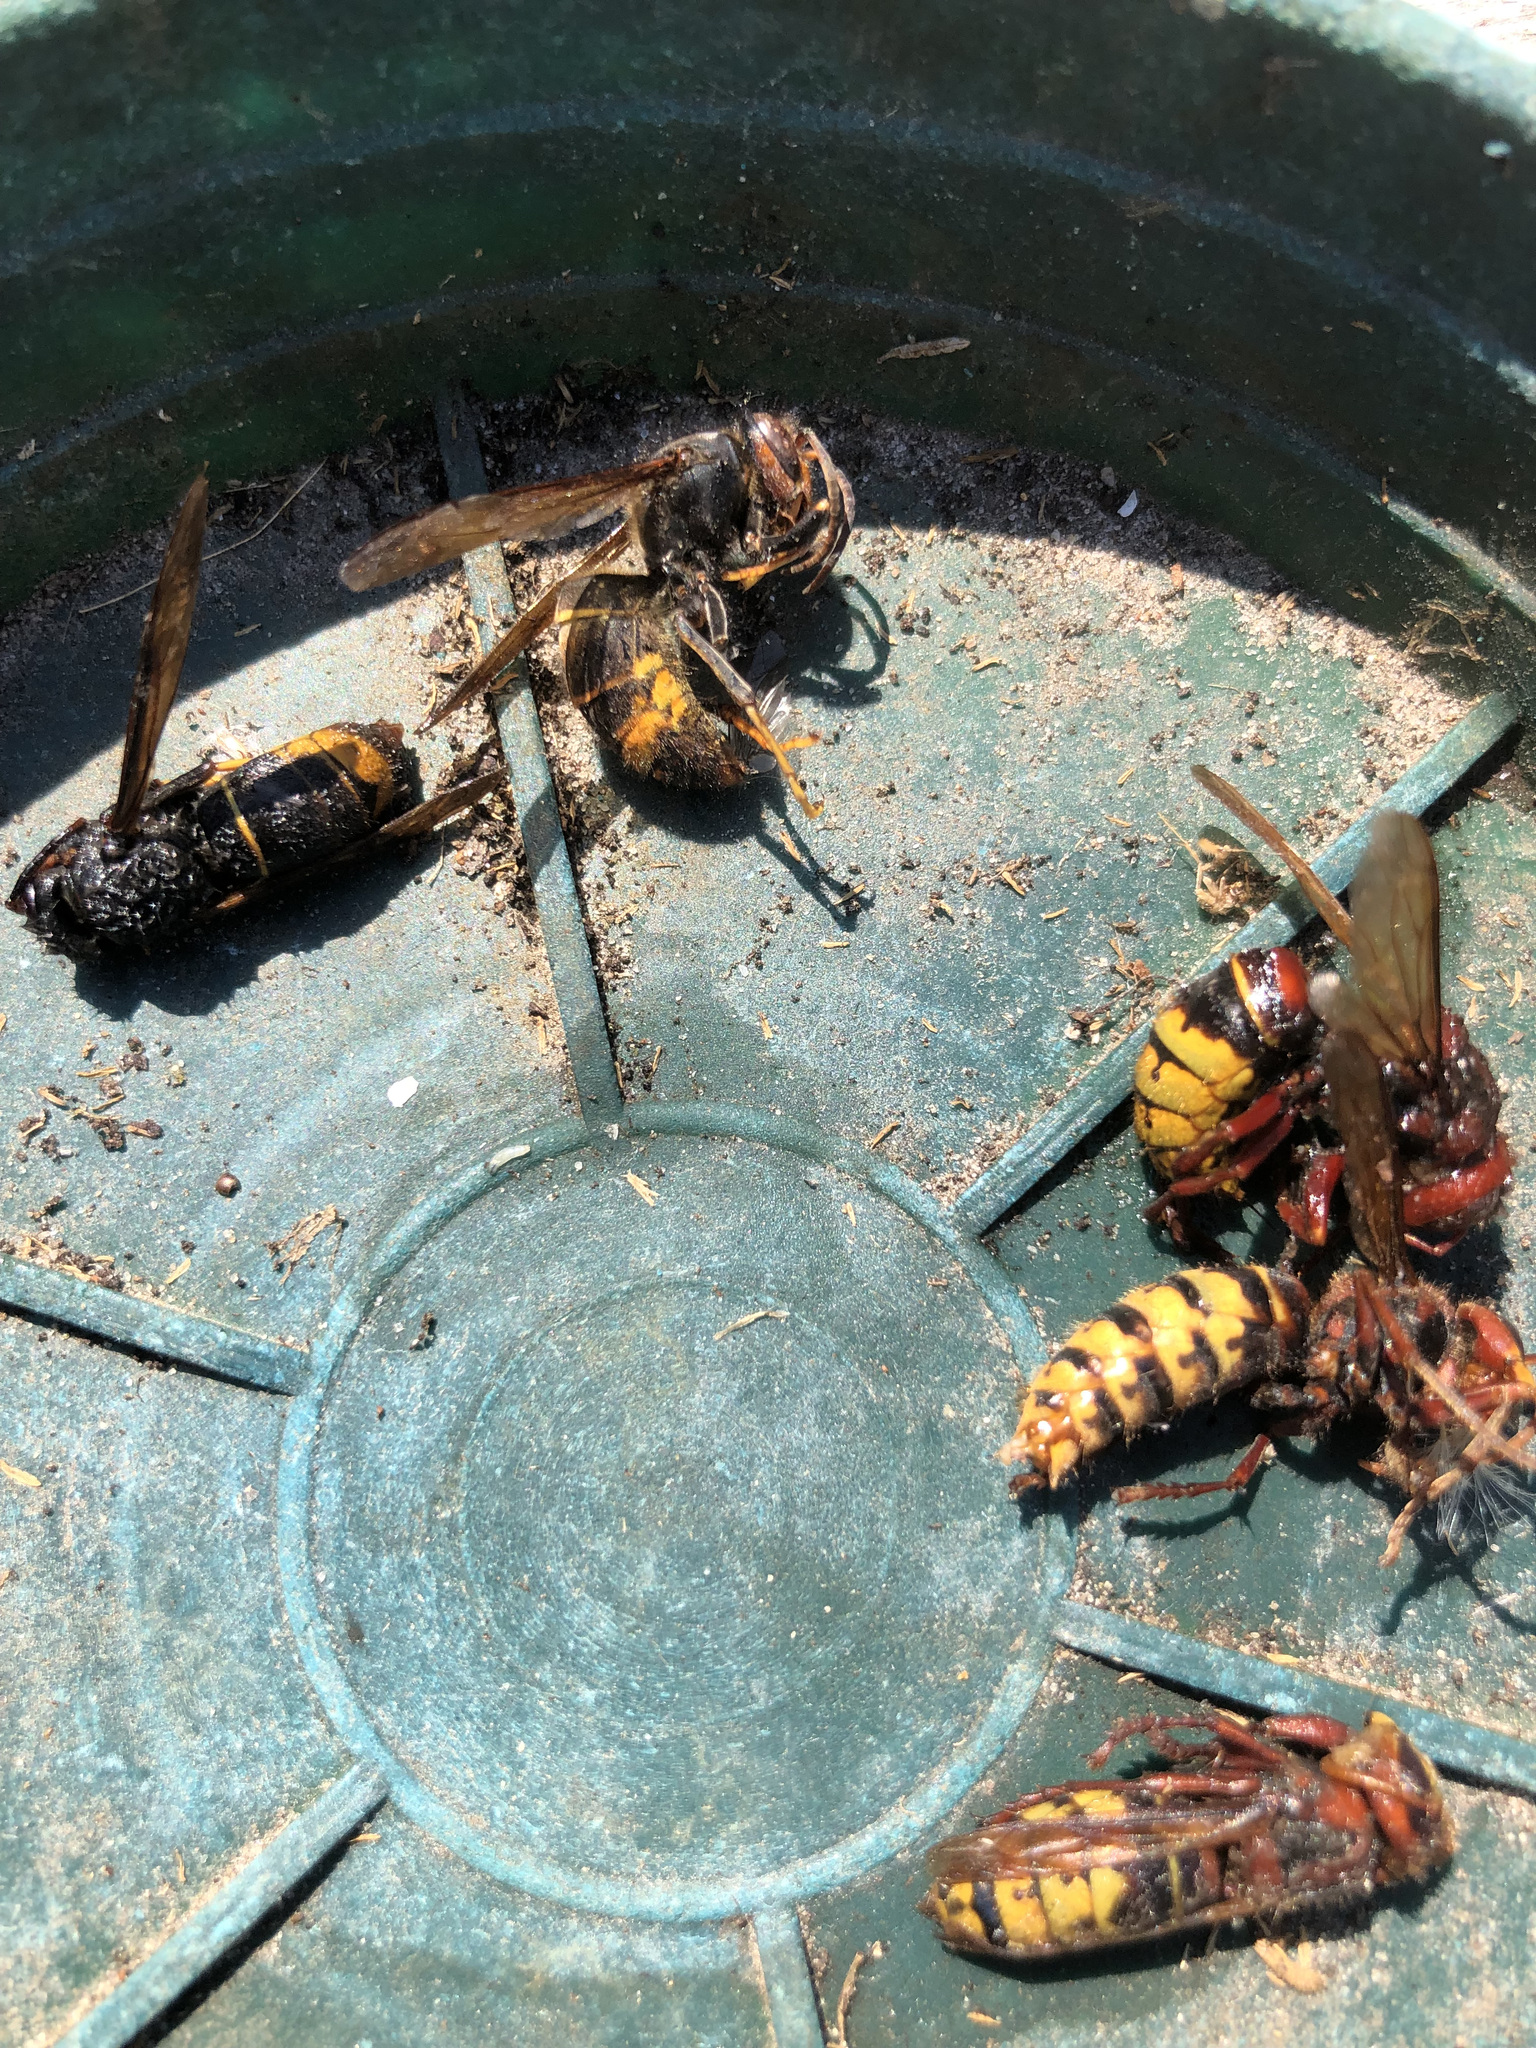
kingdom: Animalia
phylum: Arthropoda
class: Insecta
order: Hymenoptera
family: Vespidae
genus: Vespa
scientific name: Vespa velutina
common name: Asian hornet
